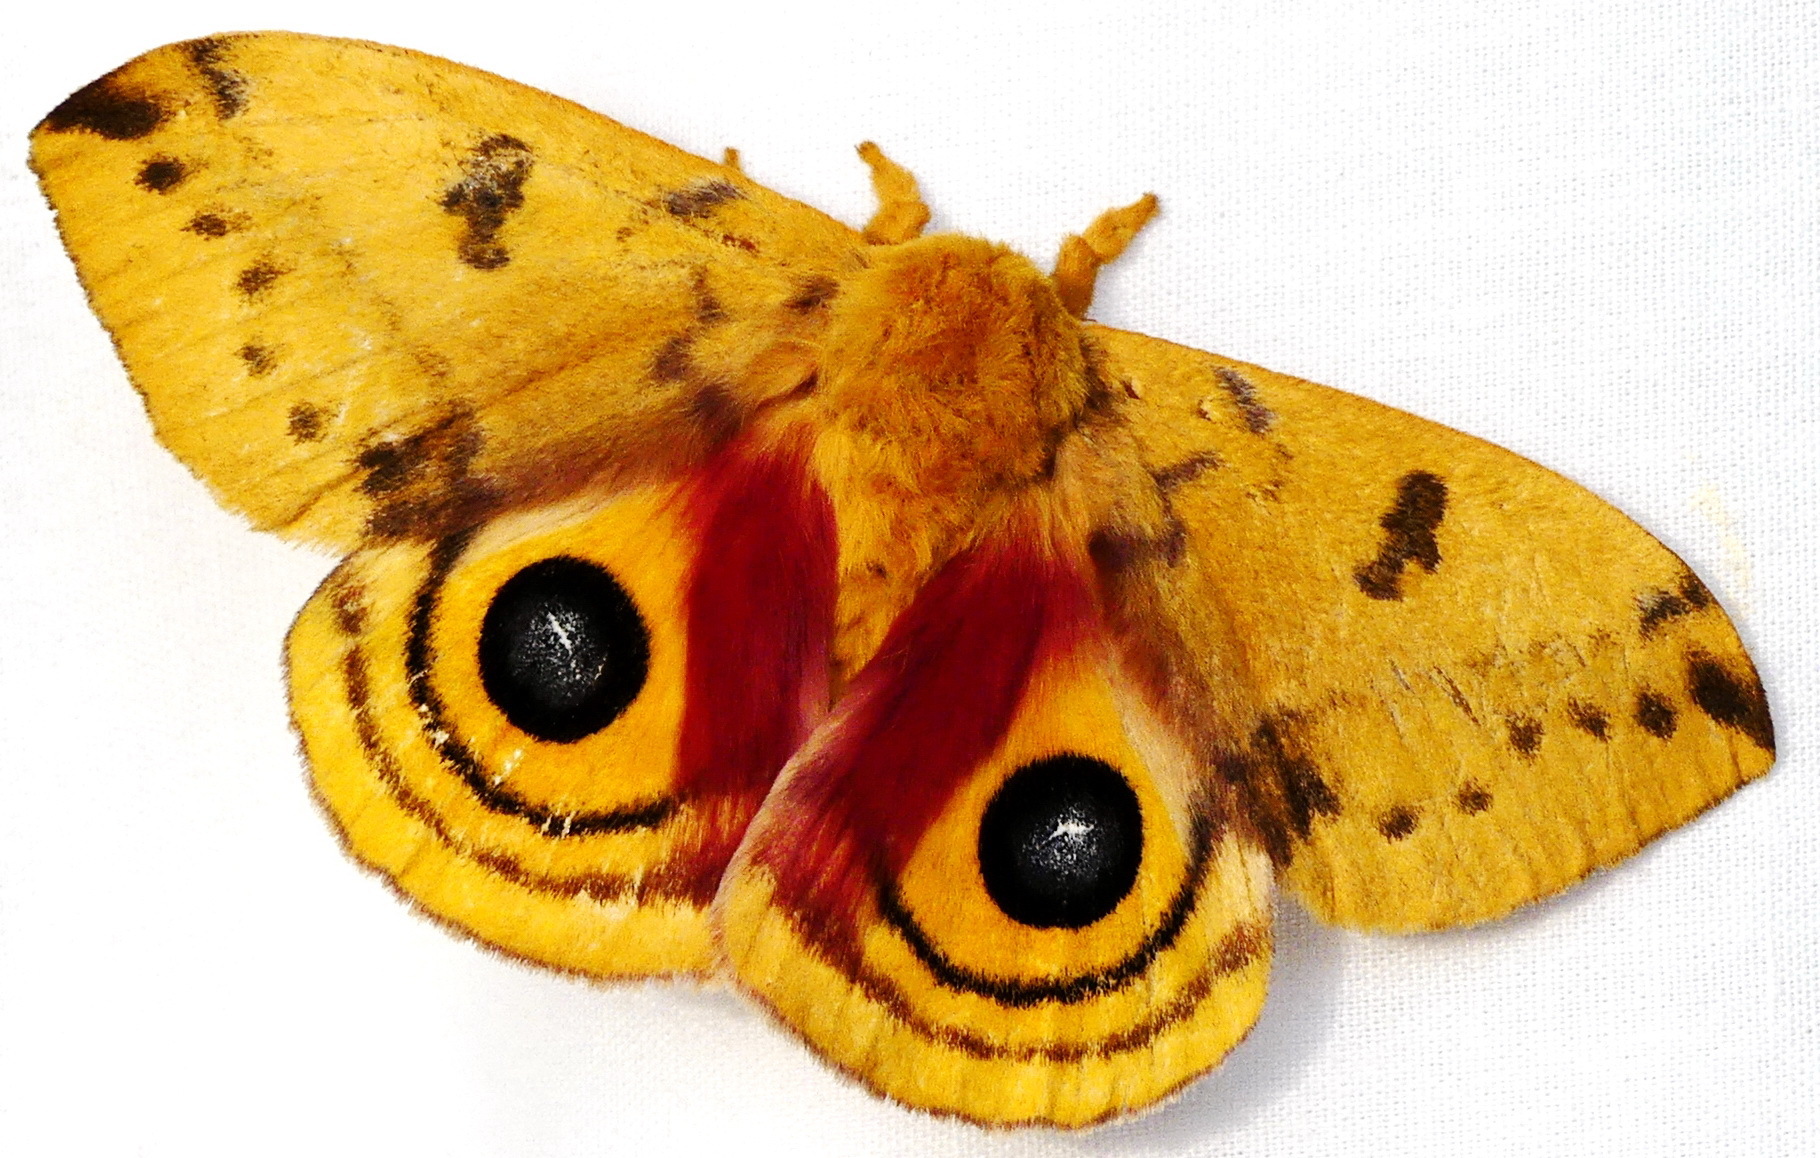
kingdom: Animalia
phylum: Arthropoda
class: Insecta
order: Lepidoptera
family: Saturniidae
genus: Automeris
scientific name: Automeris io
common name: Io moth
